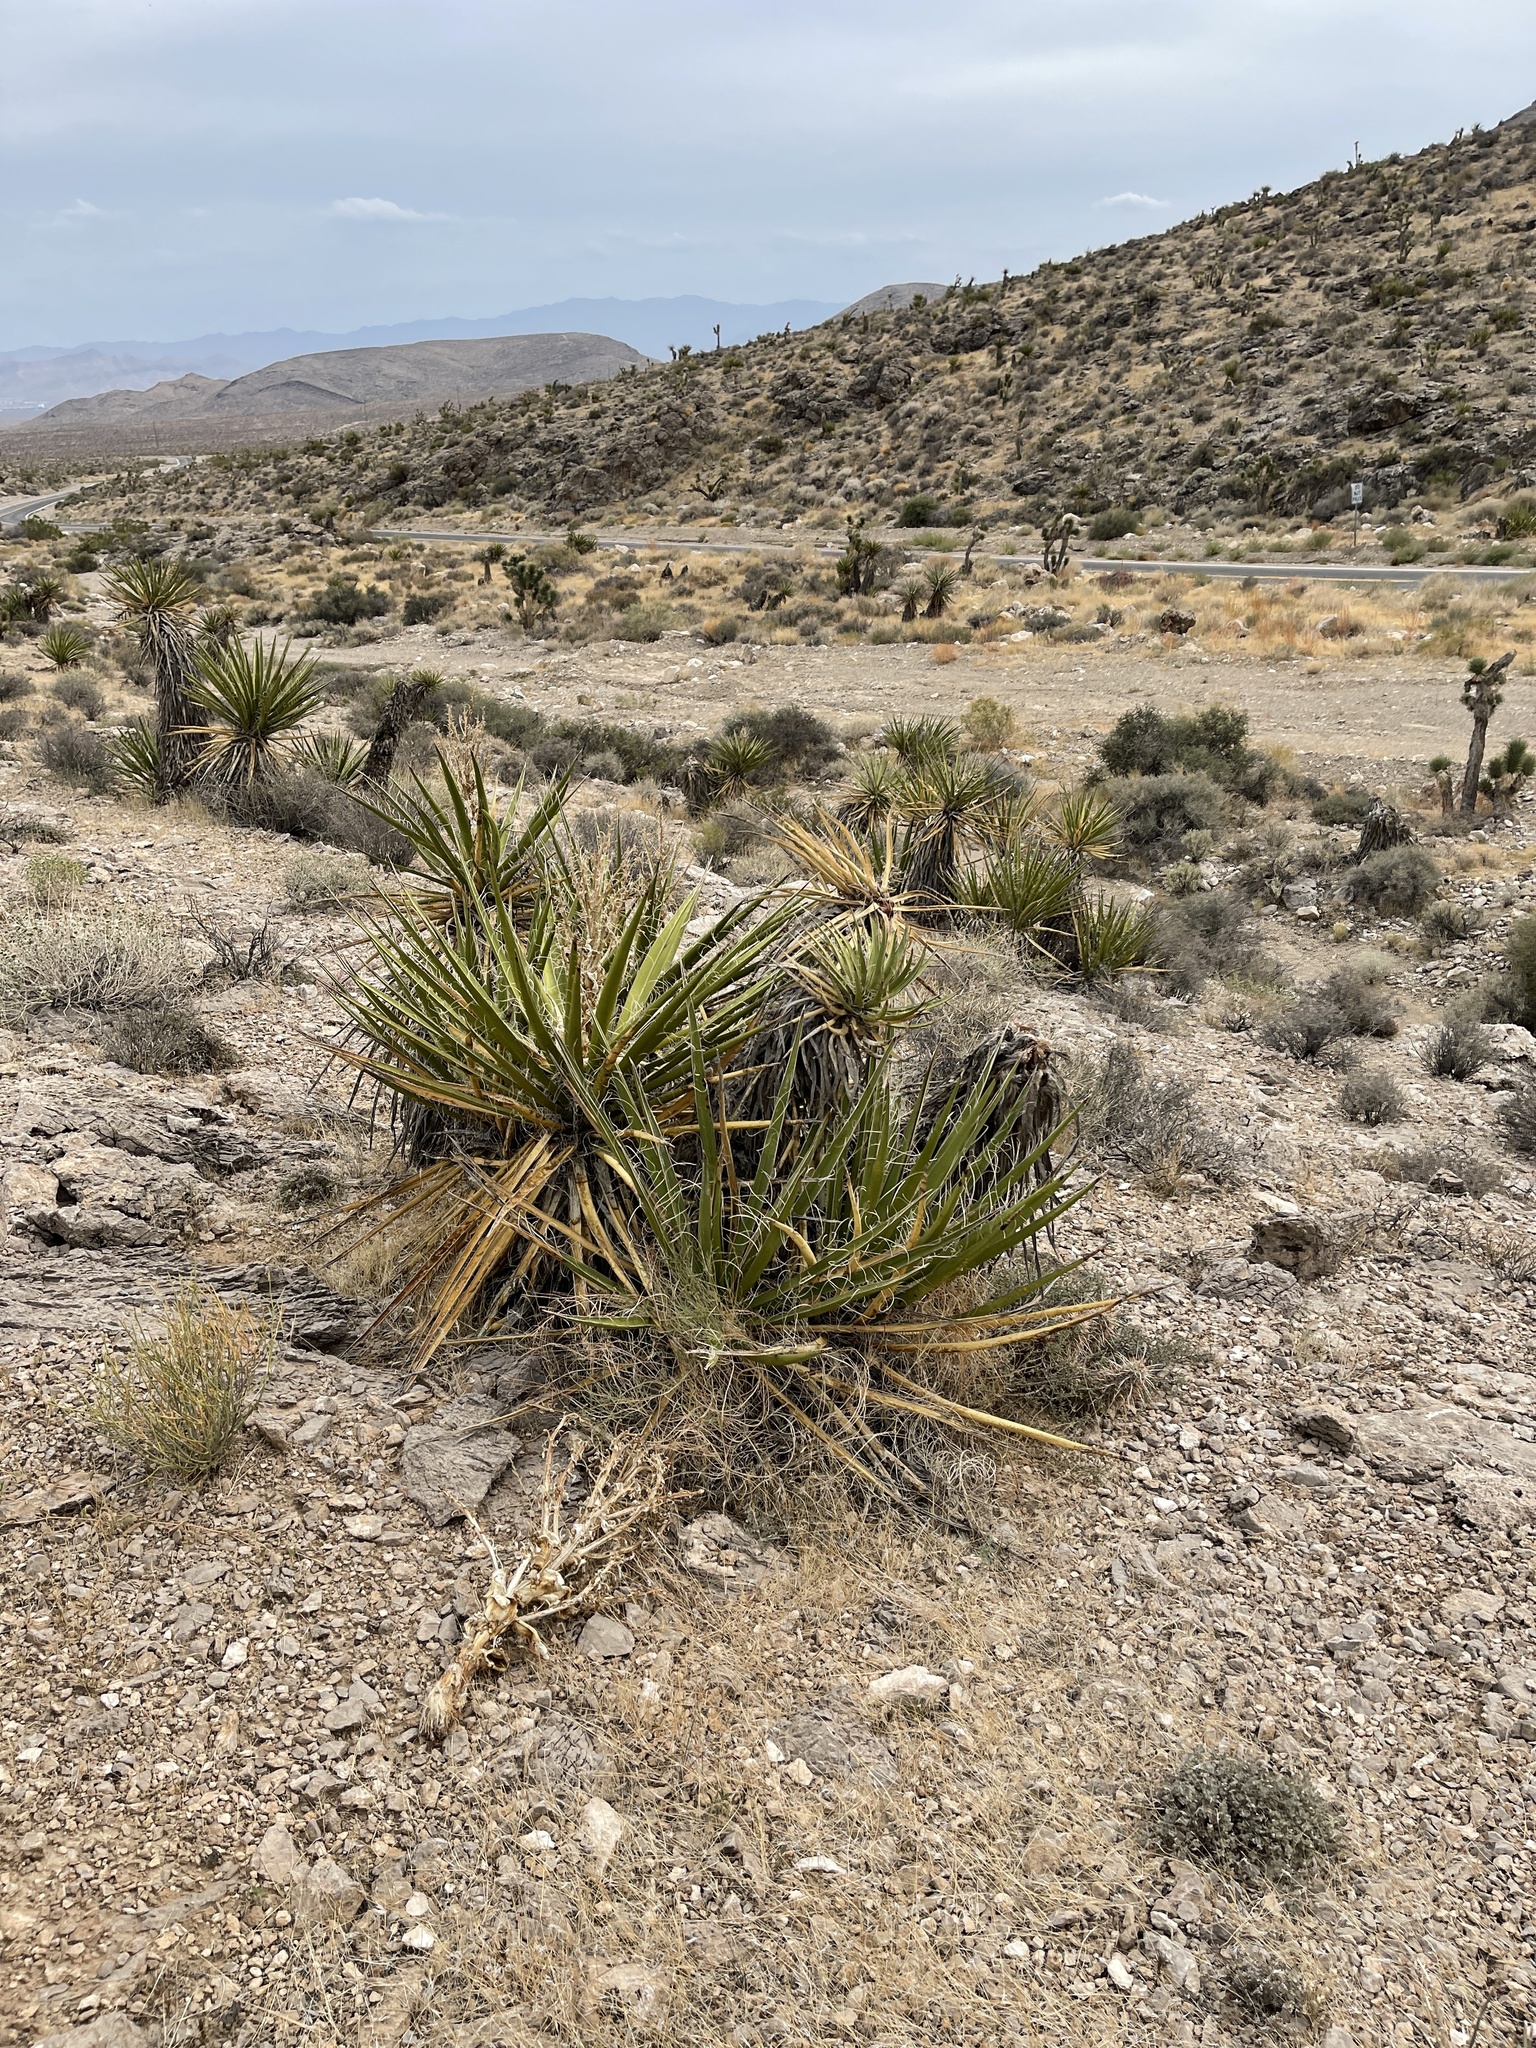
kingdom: Plantae
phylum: Tracheophyta
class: Liliopsida
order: Asparagales
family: Asparagaceae
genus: Yucca
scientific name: Yucca schidigera
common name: Mojave yucca
